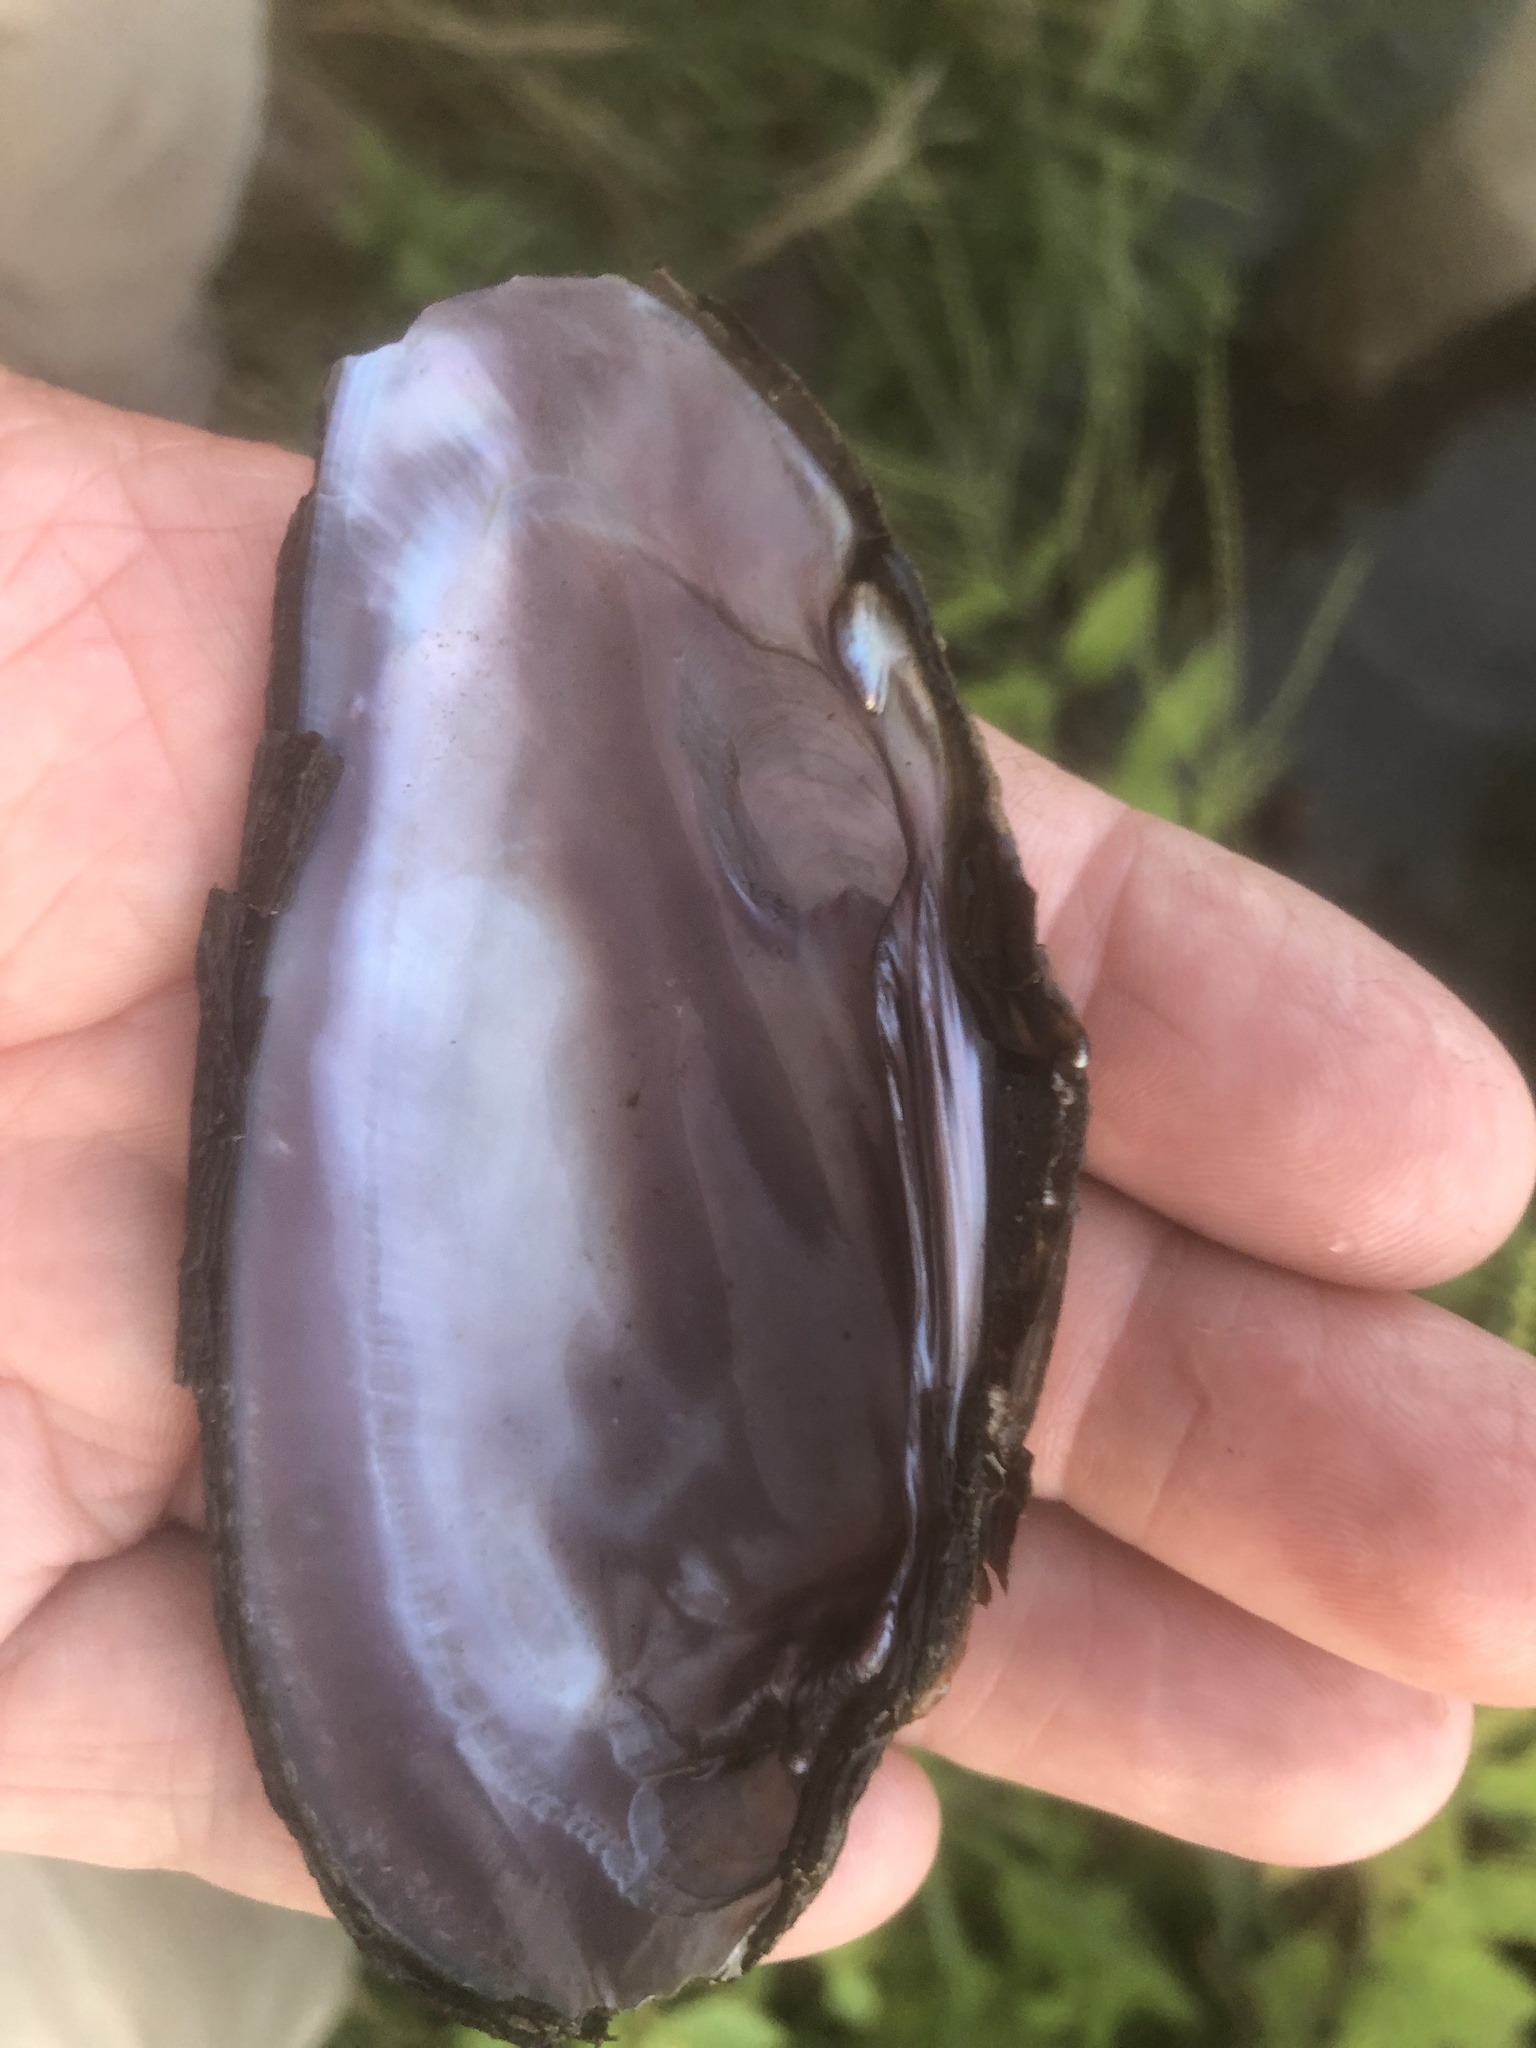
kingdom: Animalia
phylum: Mollusca
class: Bivalvia
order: Unionida
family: Unionidae
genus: Eurynia
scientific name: Eurynia dilatata
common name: Spike
